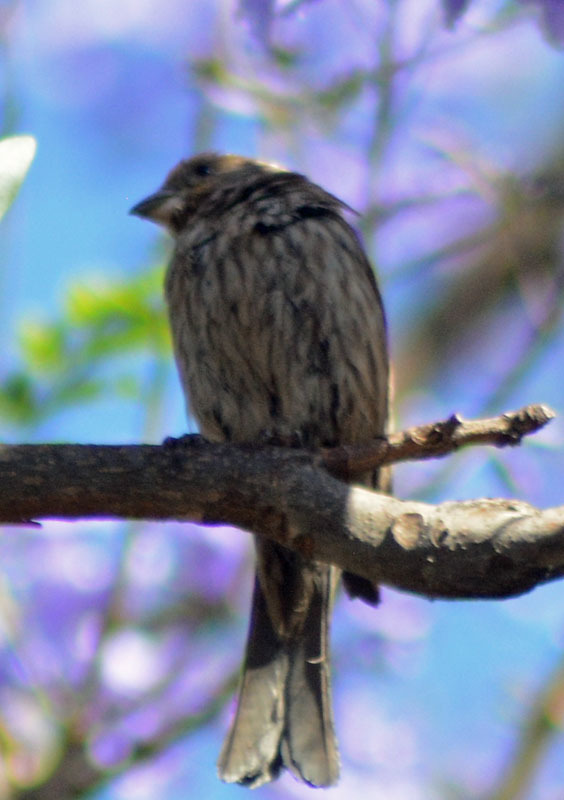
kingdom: Animalia
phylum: Chordata
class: Aves
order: Passeriformes
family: Fringillidae
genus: Haemorhous
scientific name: Haemorhous mexicanus
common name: House finch
